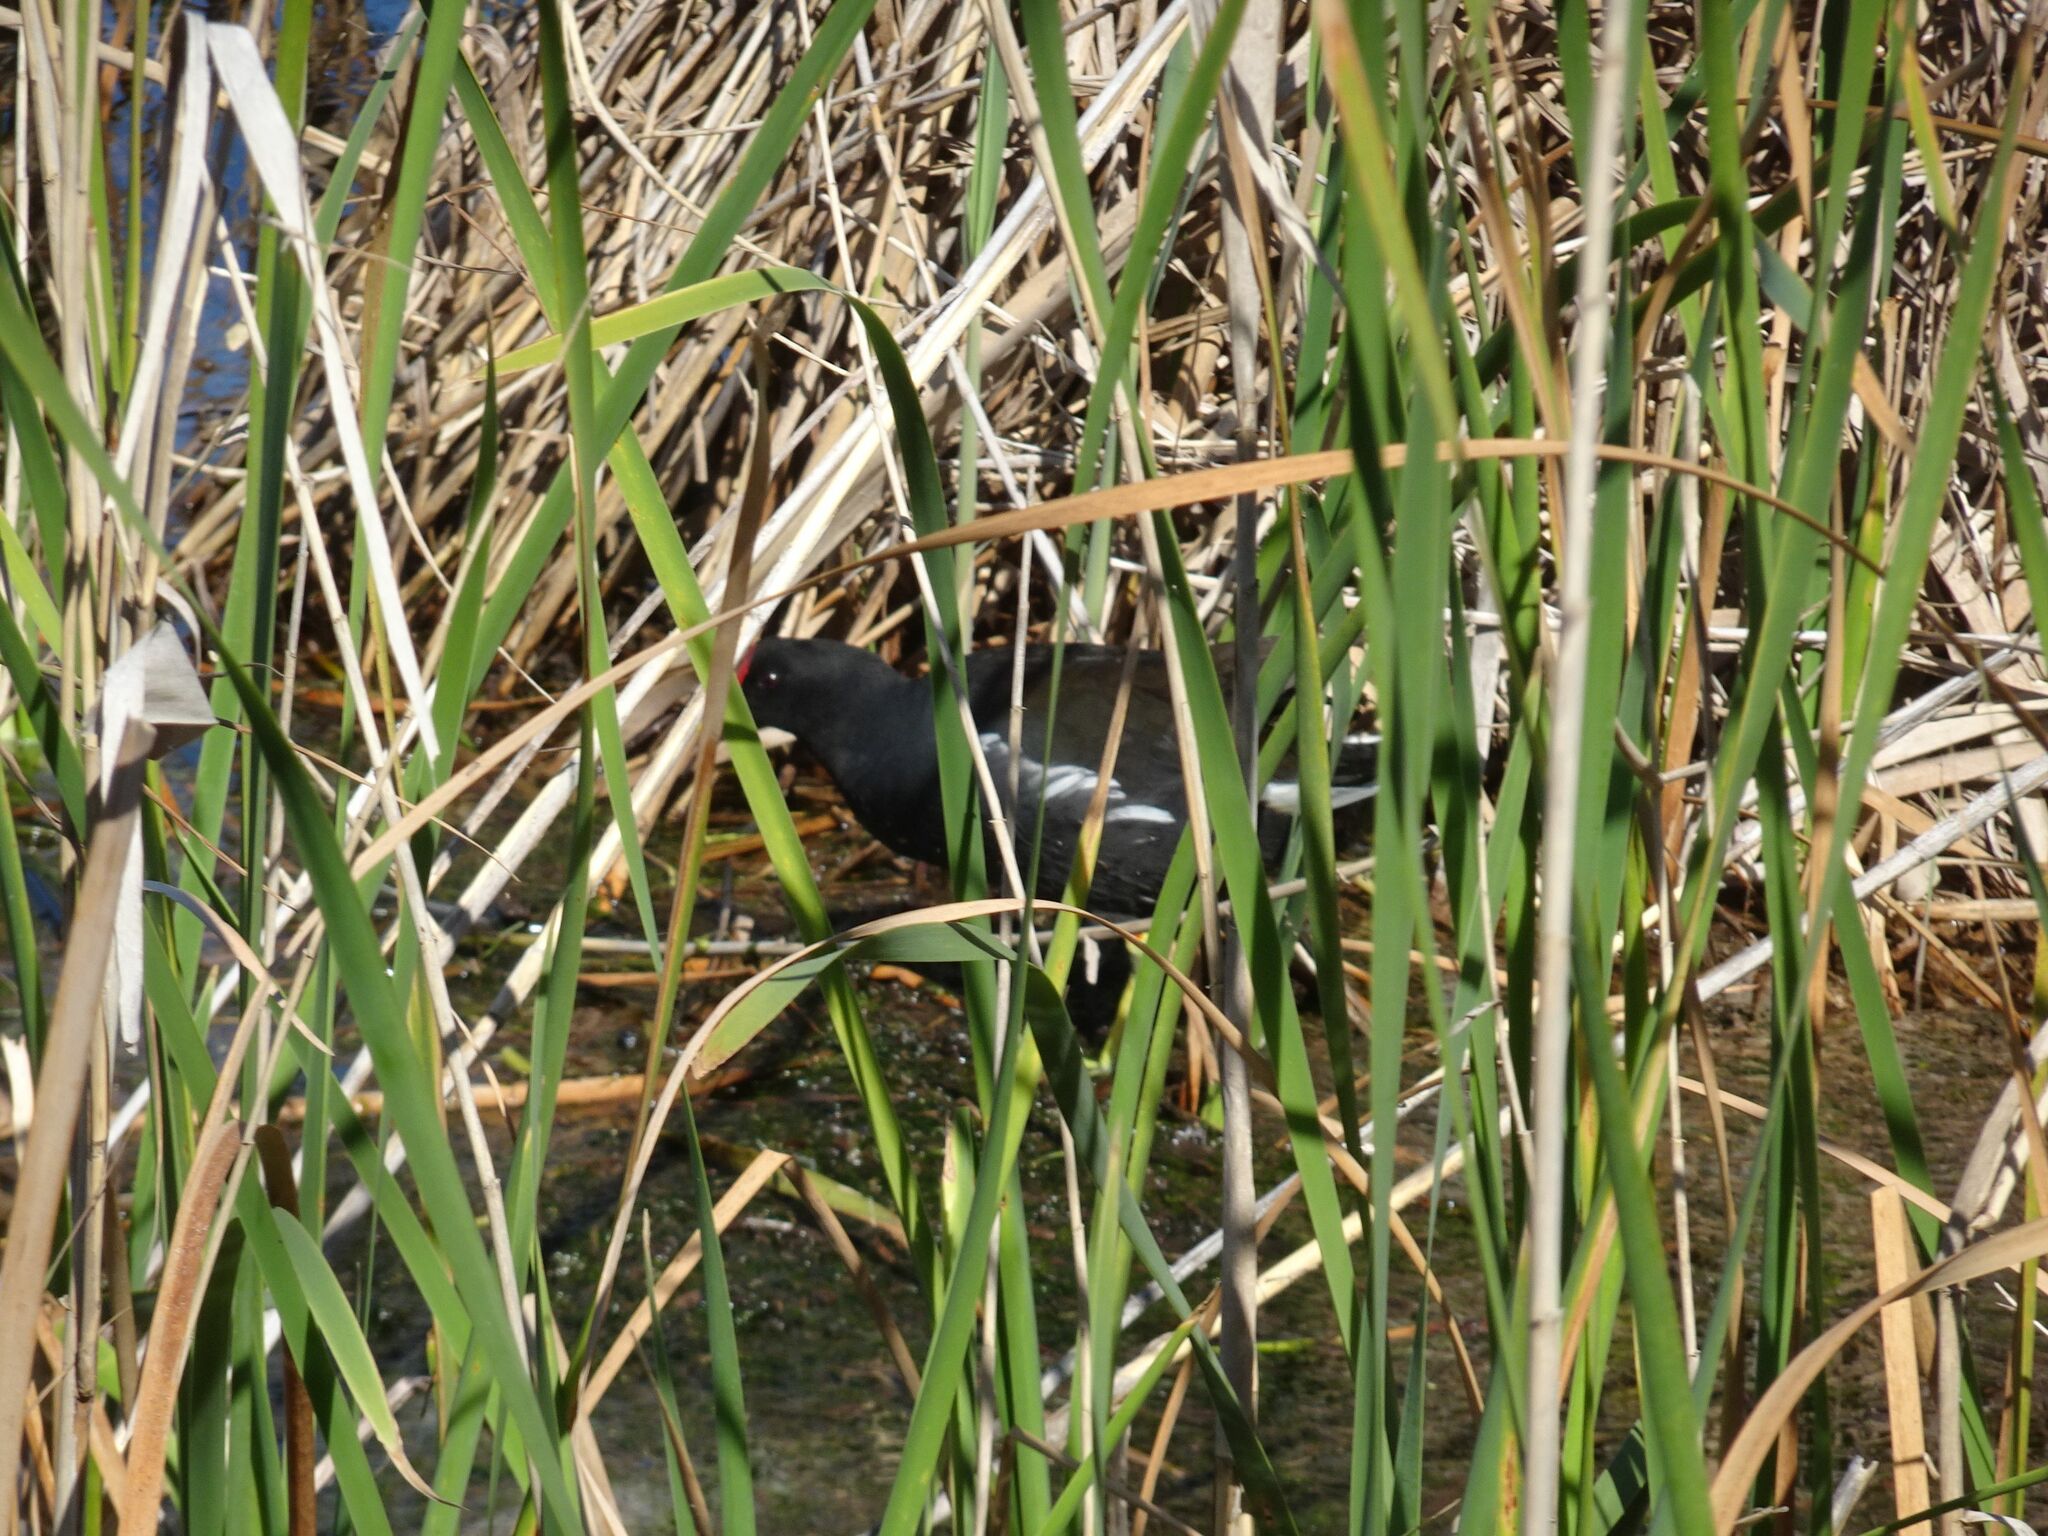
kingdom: Animalia
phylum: Chordata
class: Aves
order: Gruiformes
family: Rallidae
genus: Gallinula
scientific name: Gallinula chloropus
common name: Common moorhen
